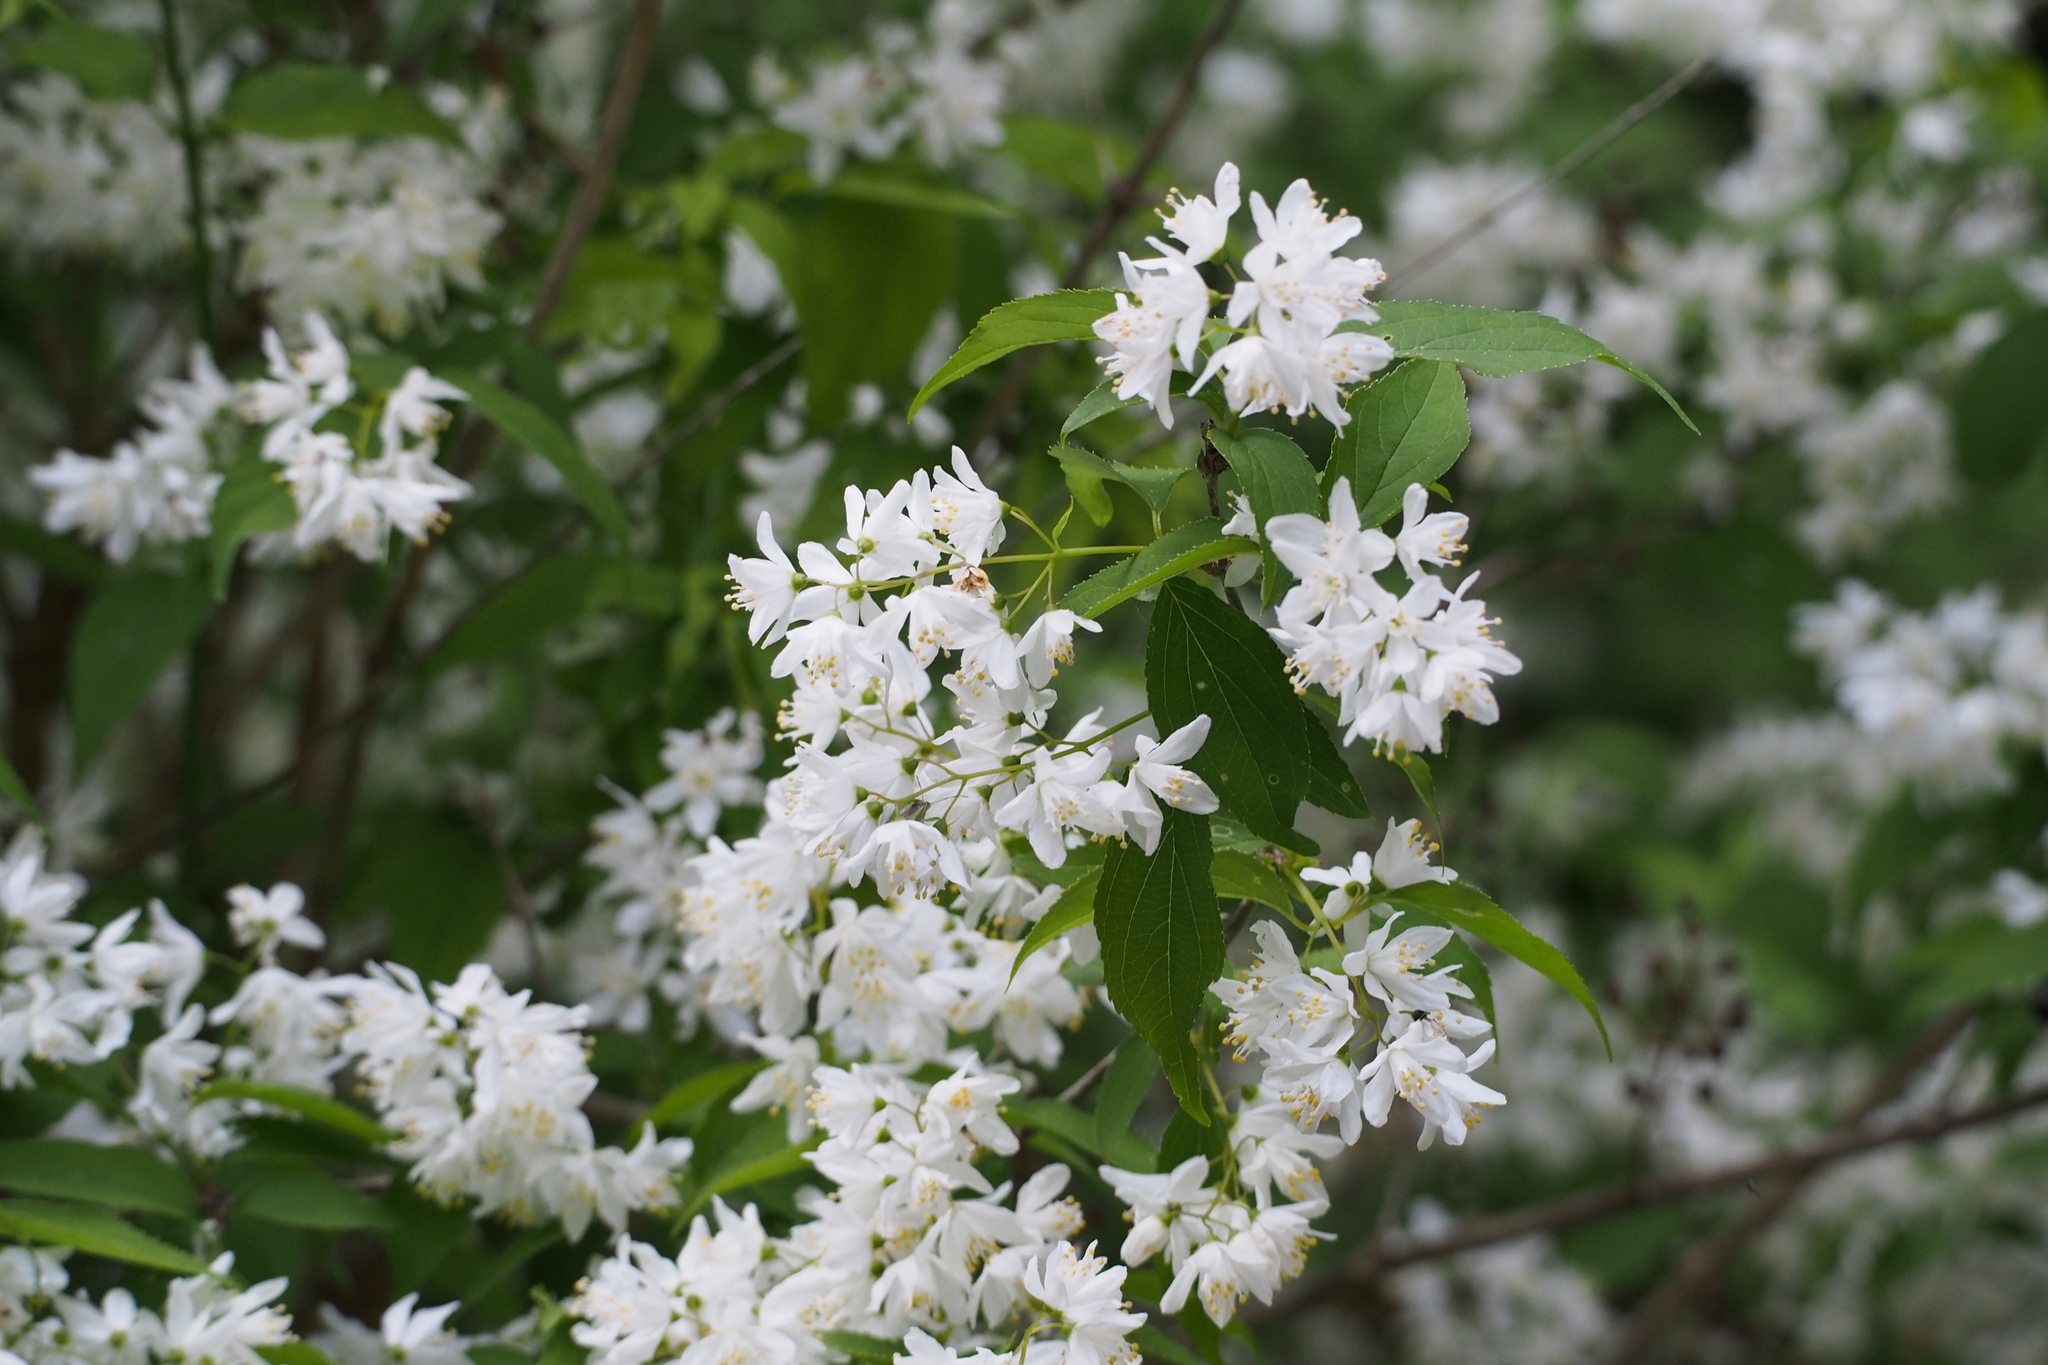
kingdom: Plantae
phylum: Tracheophyta
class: Magnoliopsida
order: Cornales
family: Hydrangeaceae
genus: Deutzia
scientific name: Deutzia gracilis
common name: Slender pride of rochester
